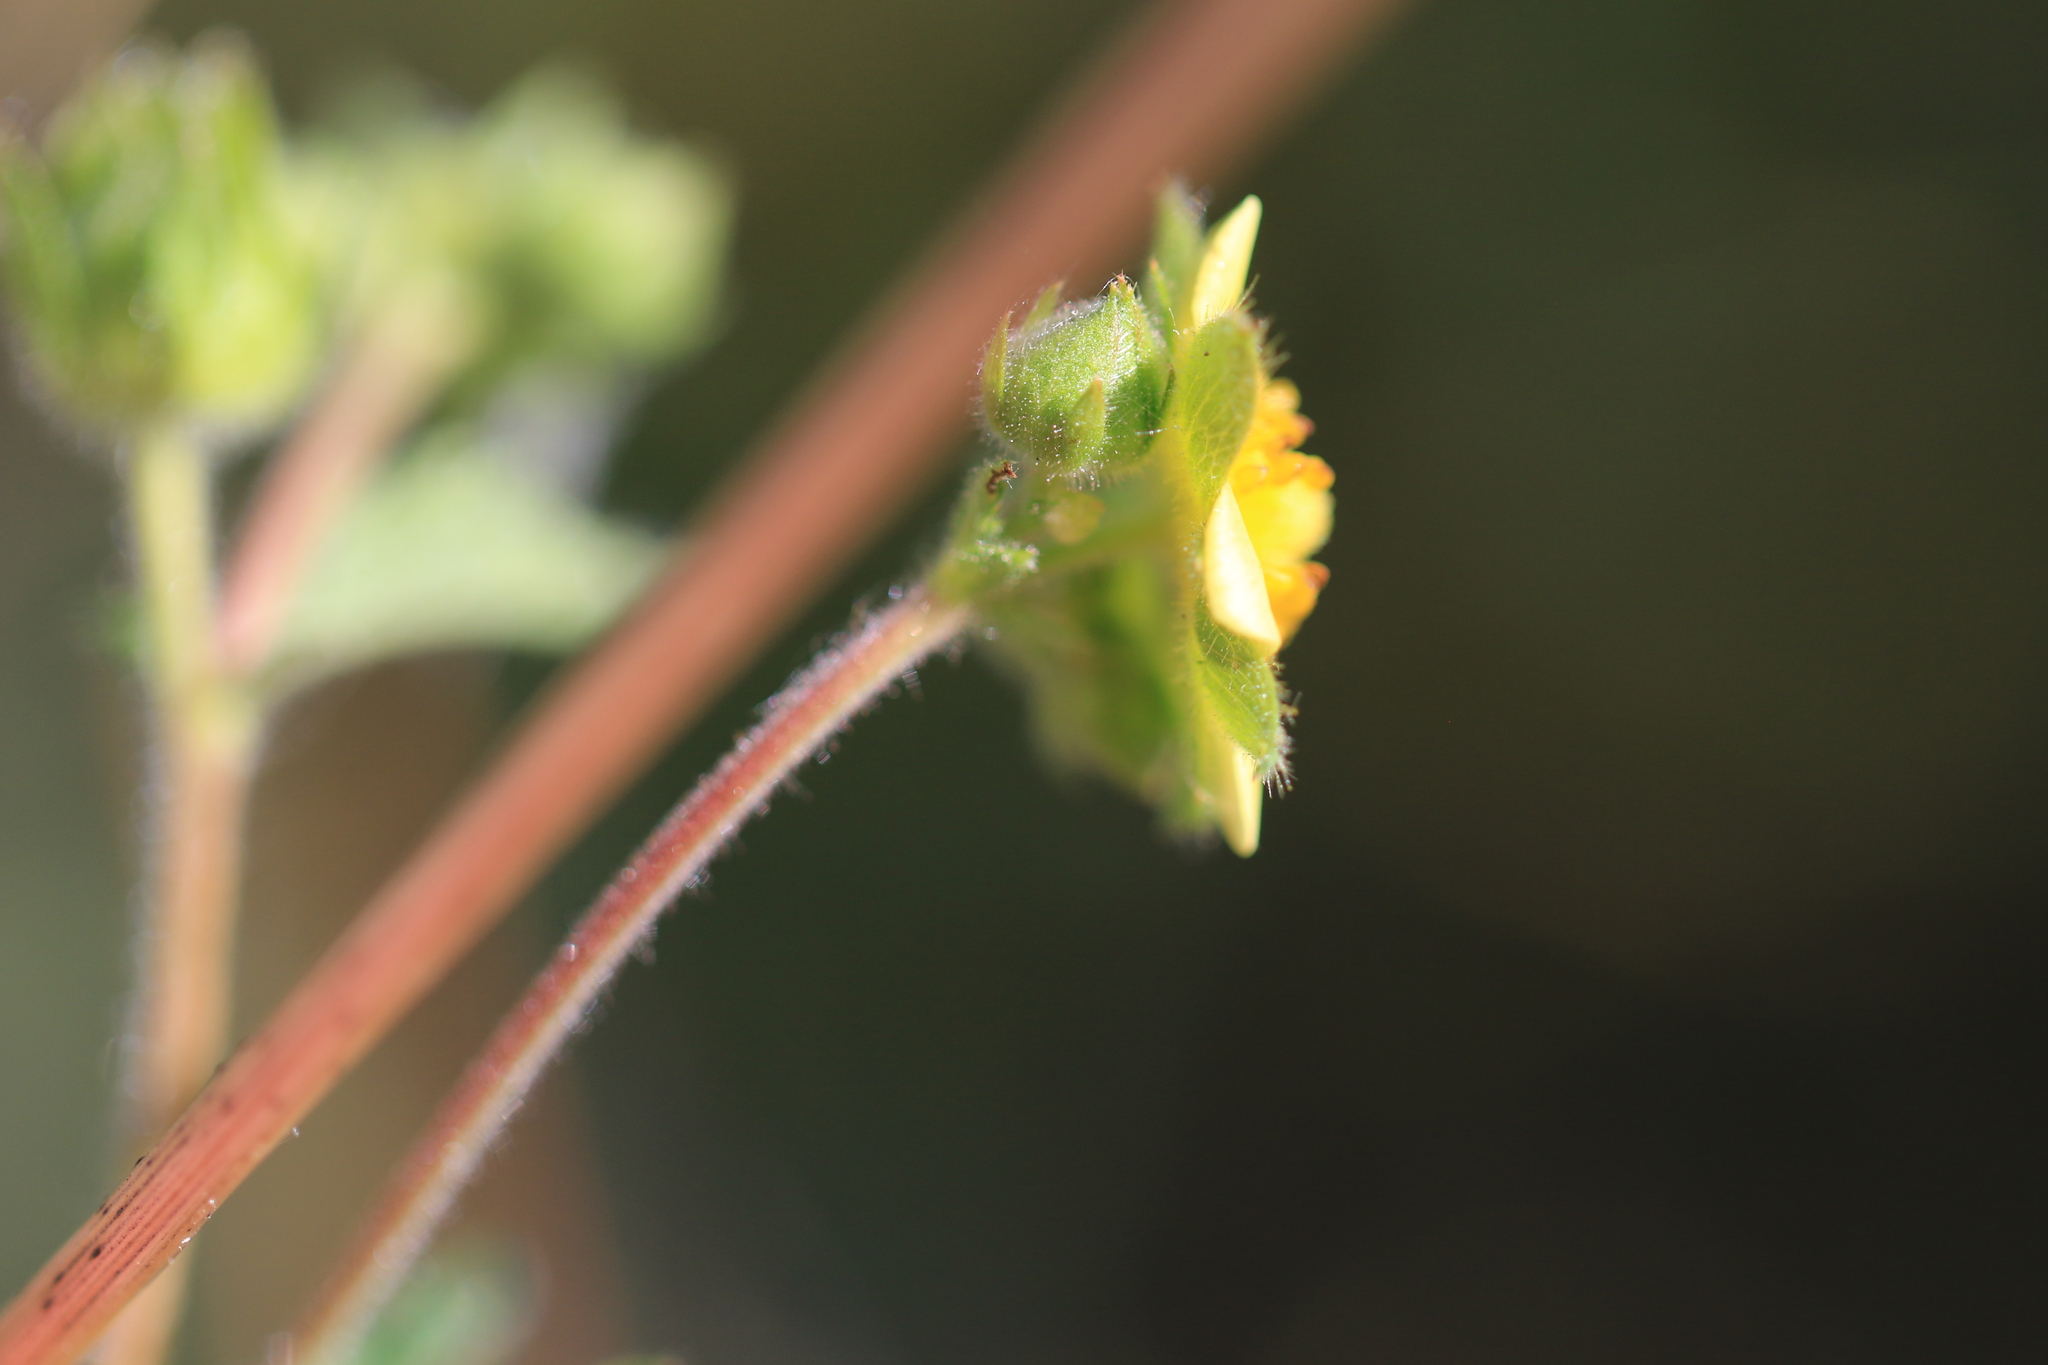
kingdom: Plantae
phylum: Tracheophyta
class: Magnoliopsida
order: Rosales
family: Rosaceae
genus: Drymocallis
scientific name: Drymocallis glandulosa
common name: Sticky cinquefoil
